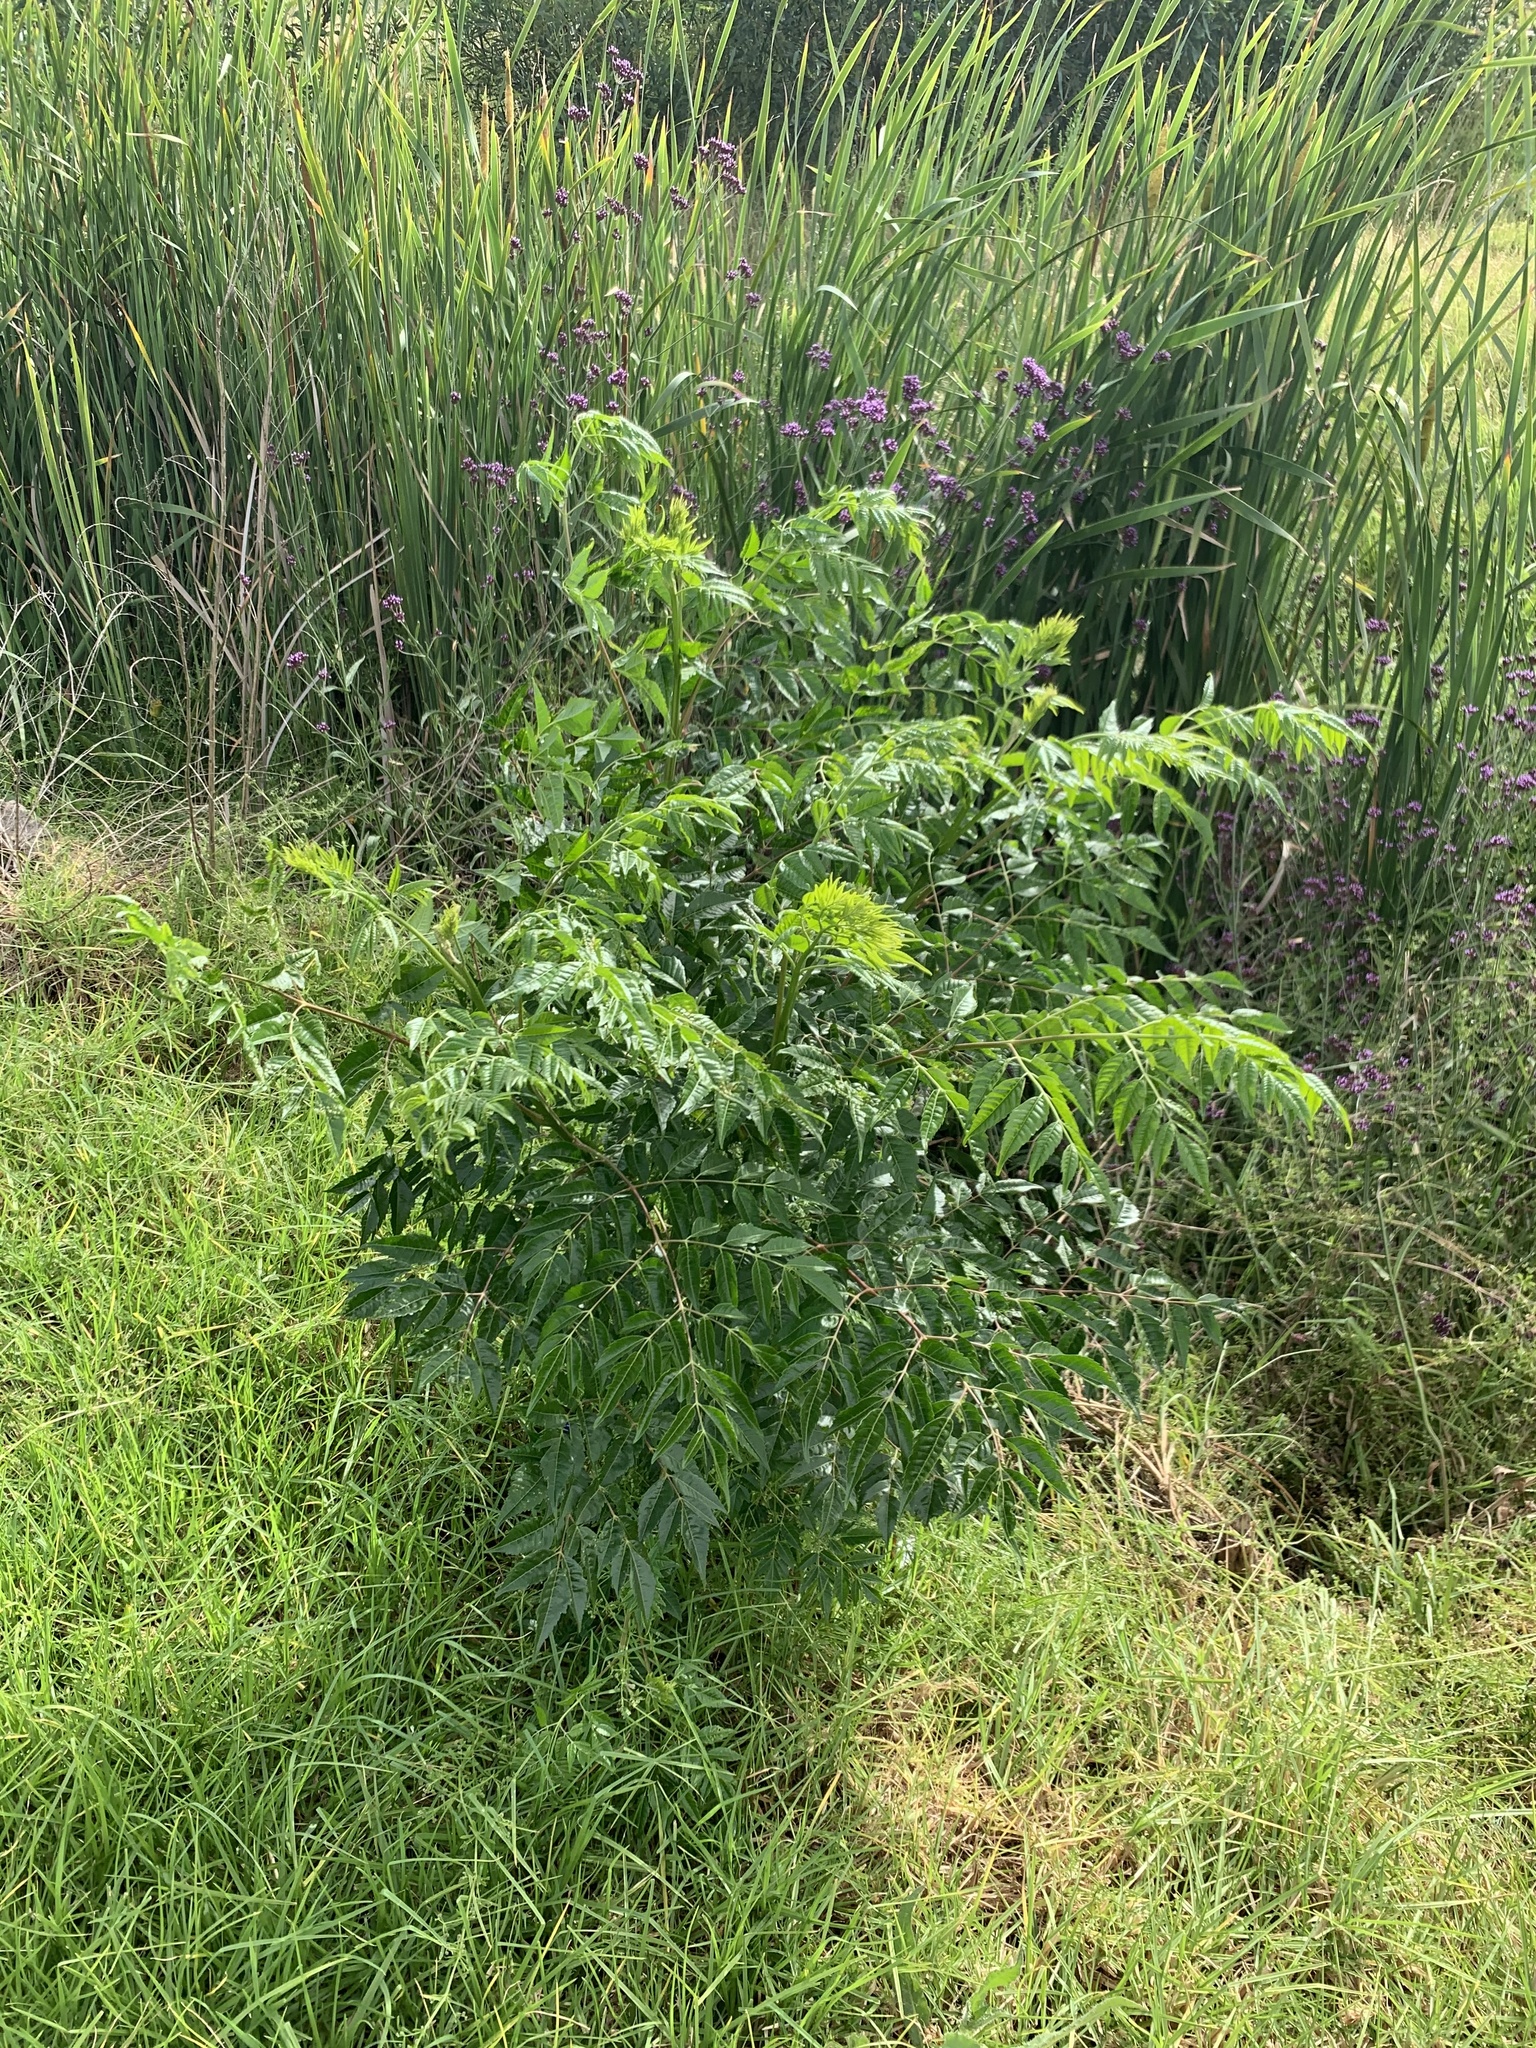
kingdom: Plantae
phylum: Tracheophyta
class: Magnoliopsida
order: Sapindales
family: Meliaceae
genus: Melia
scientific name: Melia azedarach
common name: Chinaberrytree
